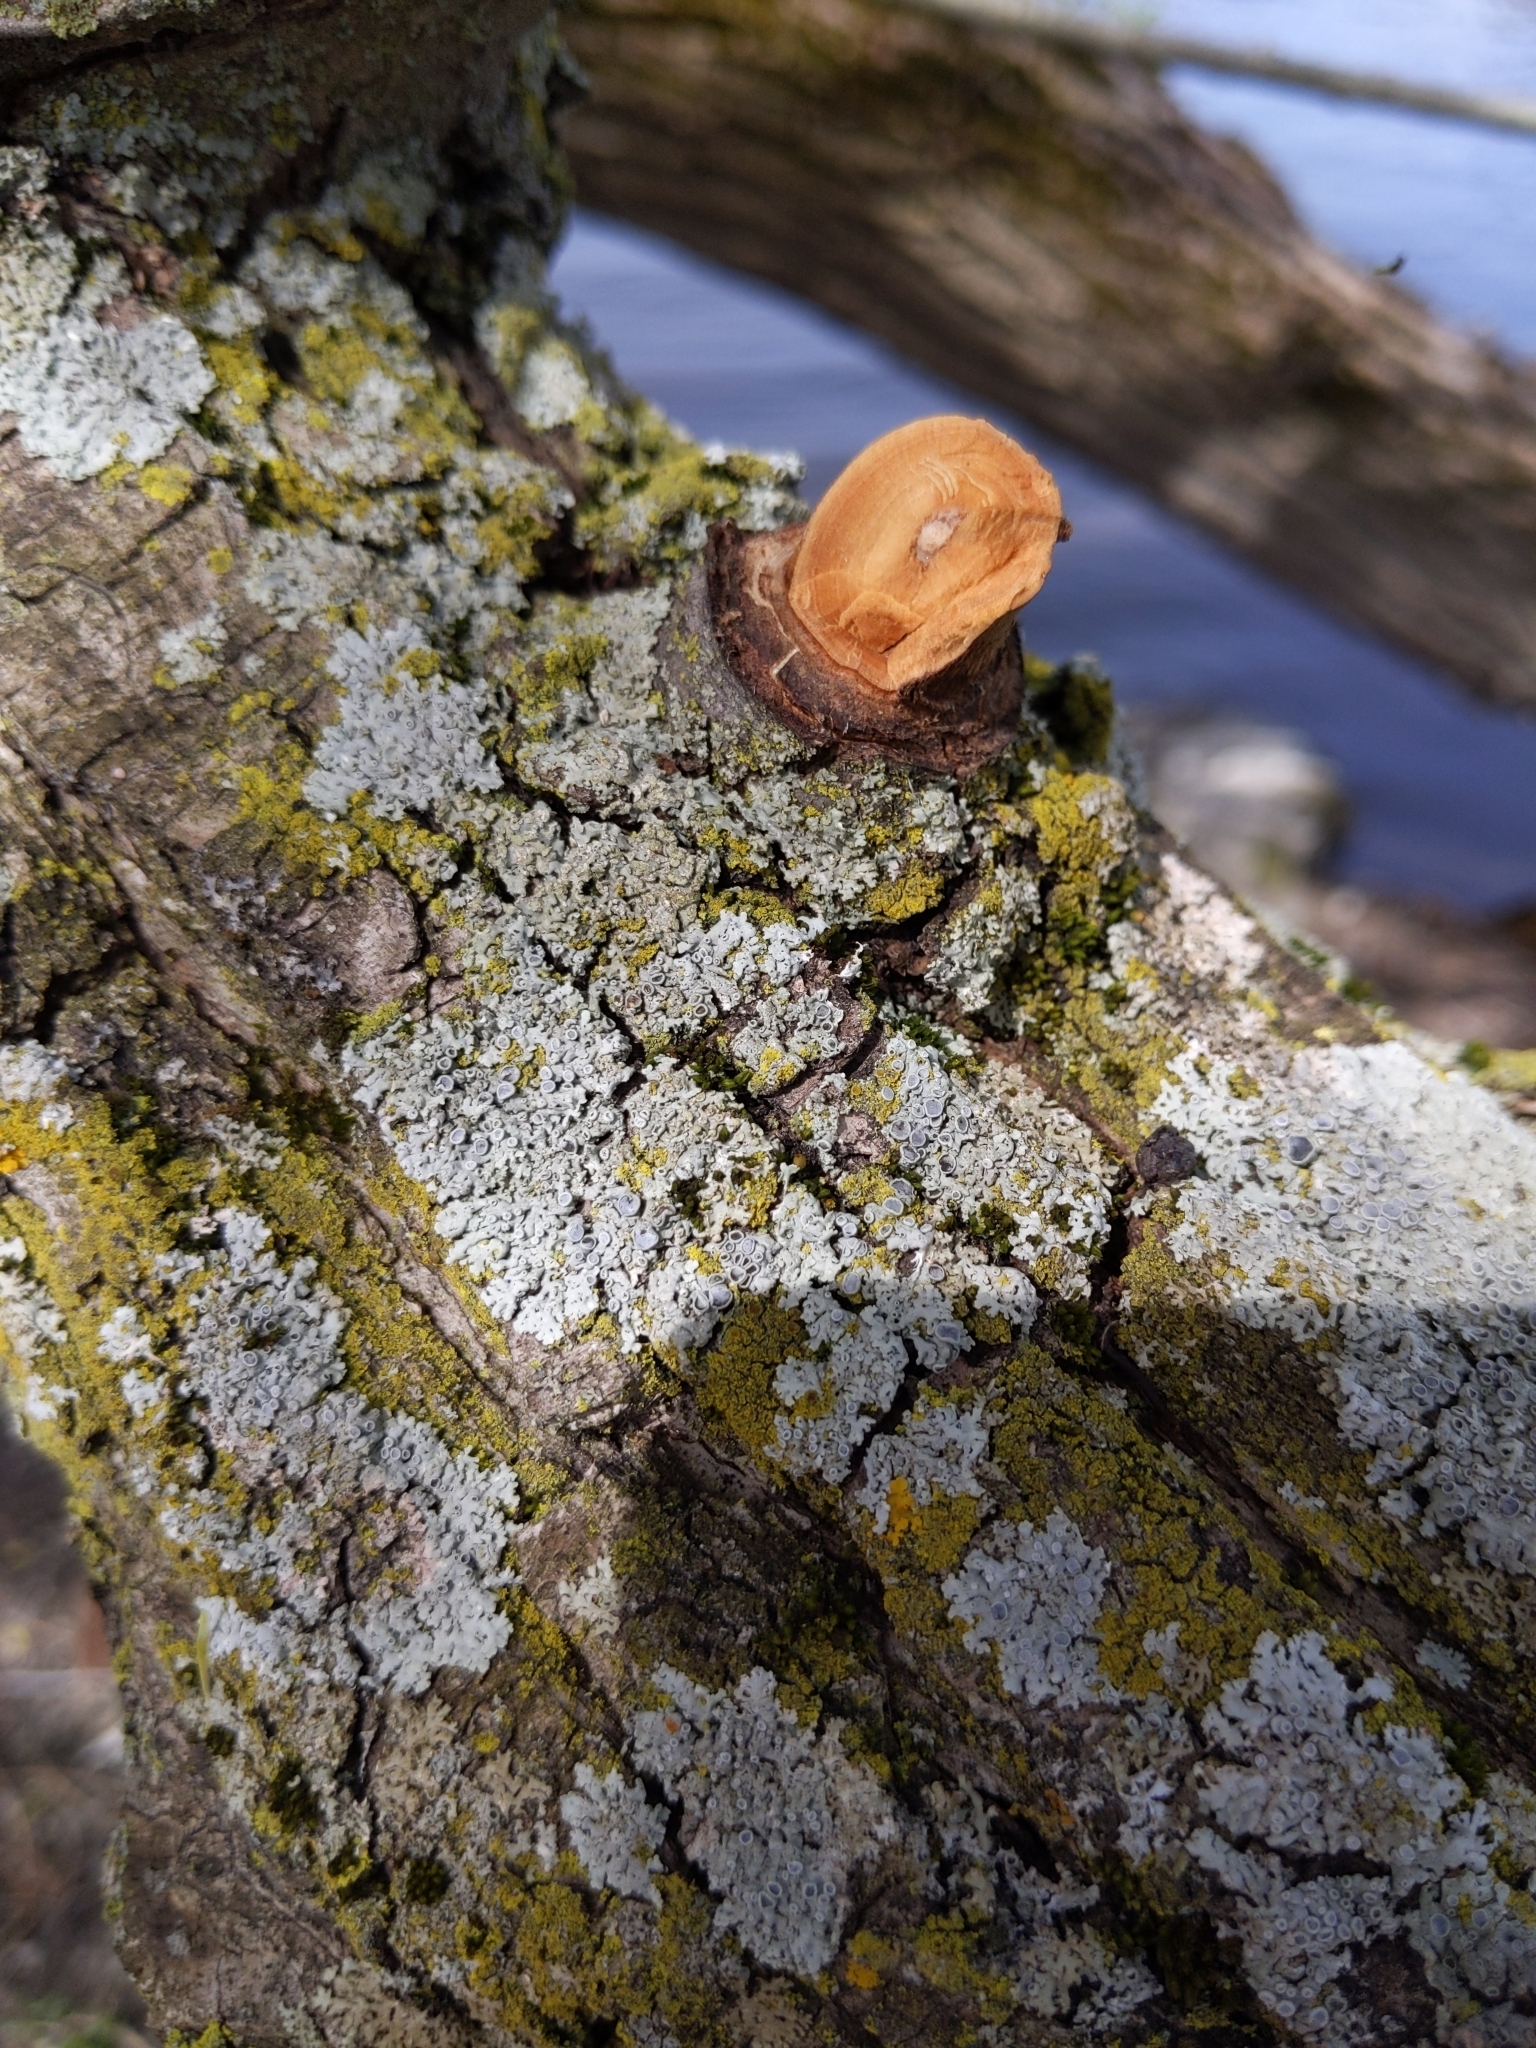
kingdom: Fungi
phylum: Ascomycota
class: Candelariomycetes
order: Candelariales
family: Candelariaceae
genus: Candelaria
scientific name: Candelaria concolor
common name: Candleflame lichen
